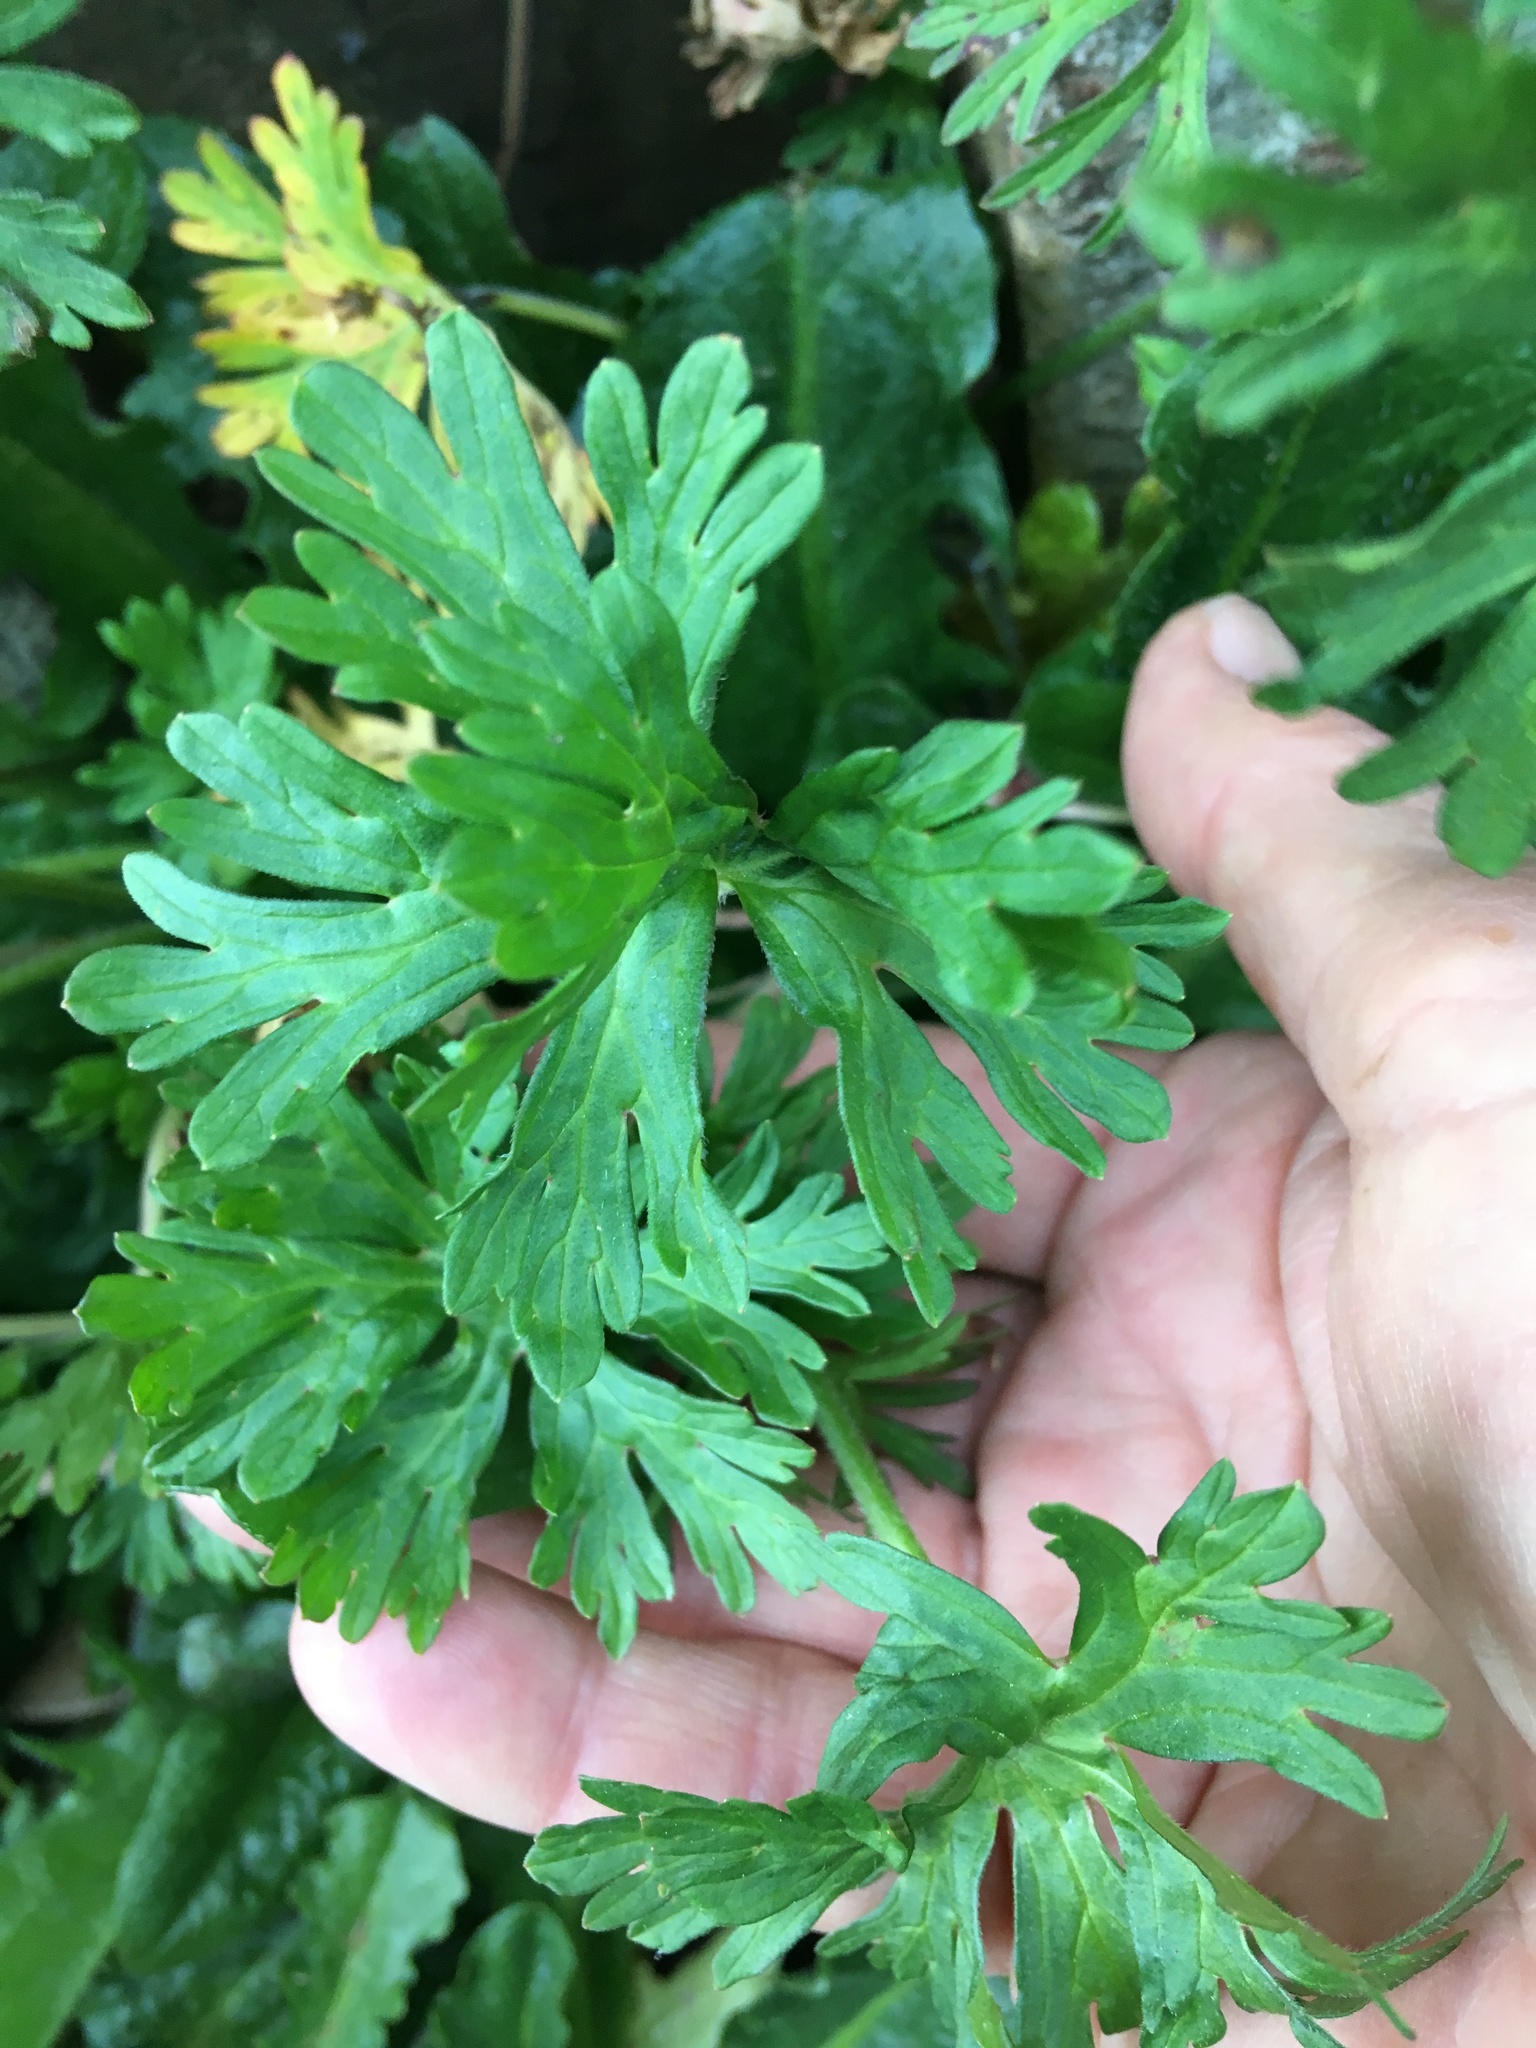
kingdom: Plantae
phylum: Tracheophyta
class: Magnoliopsida
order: Geraniales
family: Geraniaceae
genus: Geranium
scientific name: Geranium molle
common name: Dove's-foot crane's-bill
